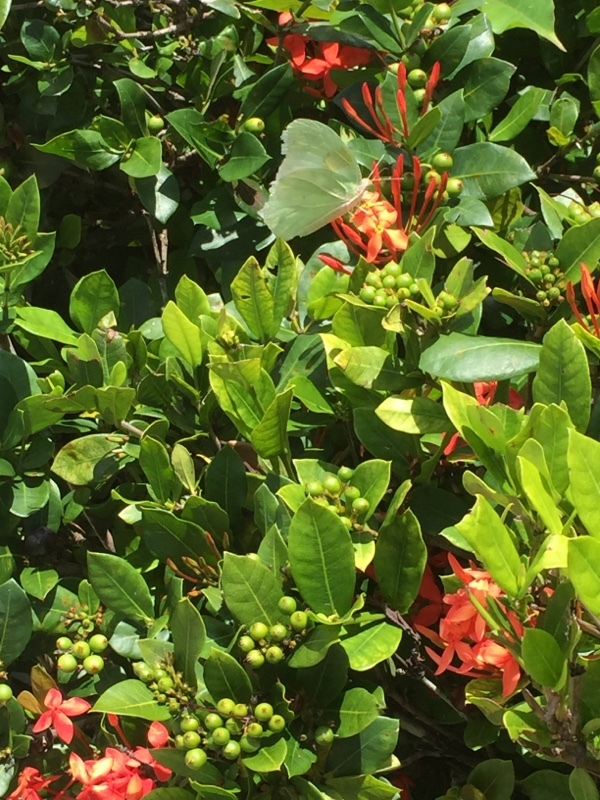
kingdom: Animalia
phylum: Arthropoda
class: Insecta
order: Lepidoptera
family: Pieridae
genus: Kricogonia
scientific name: Kricogonia lyside
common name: Guayacan sulphur,
